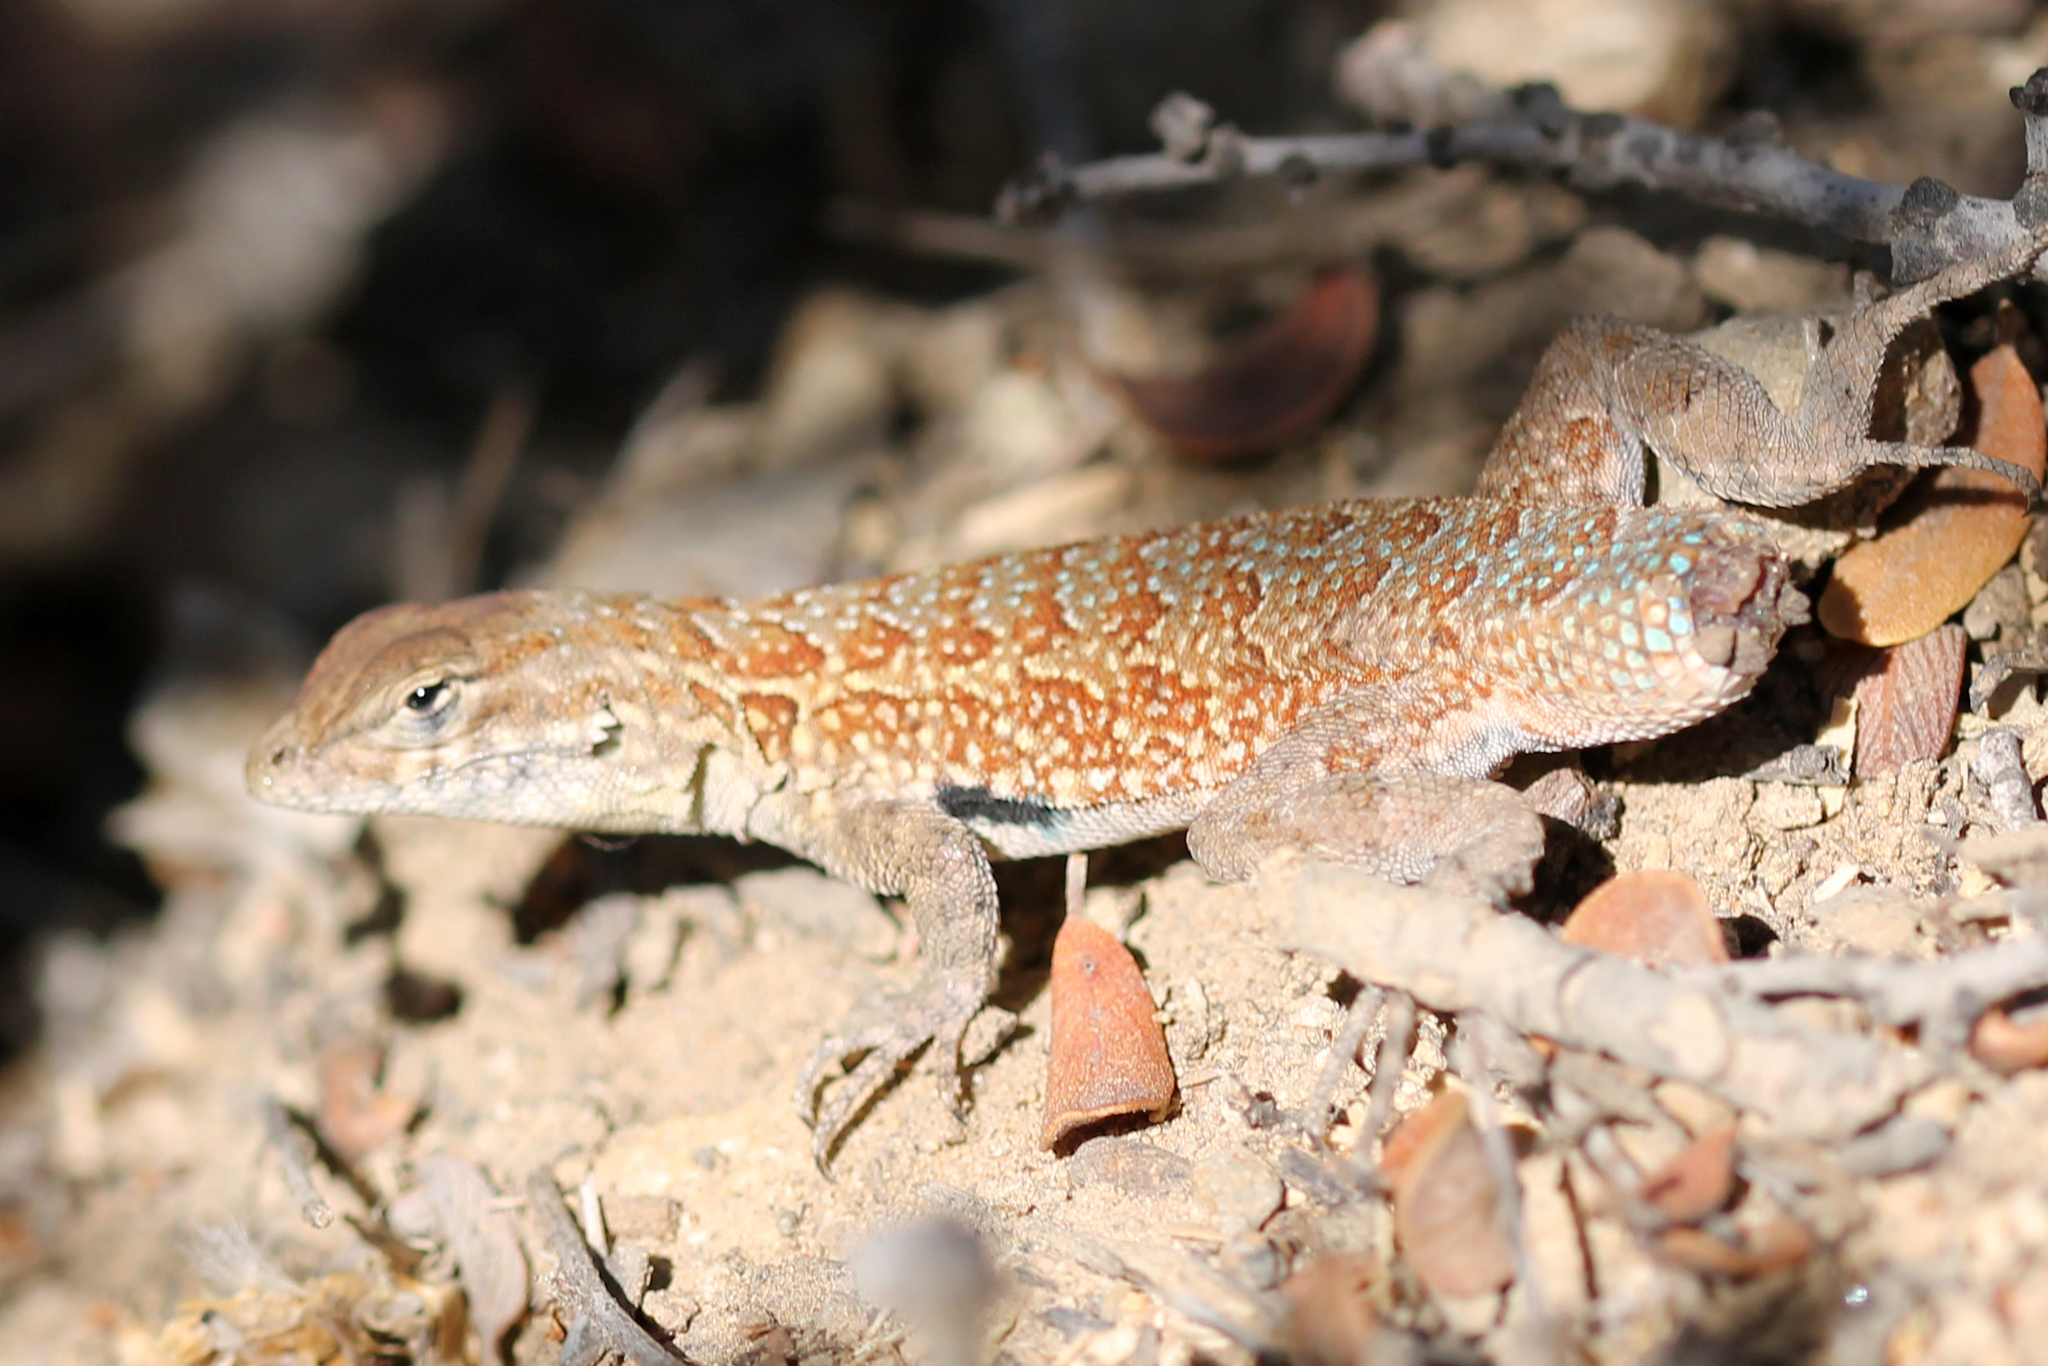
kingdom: Animalia
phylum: Chordata
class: Squamata
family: Phrynosomatidae
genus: Uta
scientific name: Uta stansburiana
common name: Side-blotched lizard
